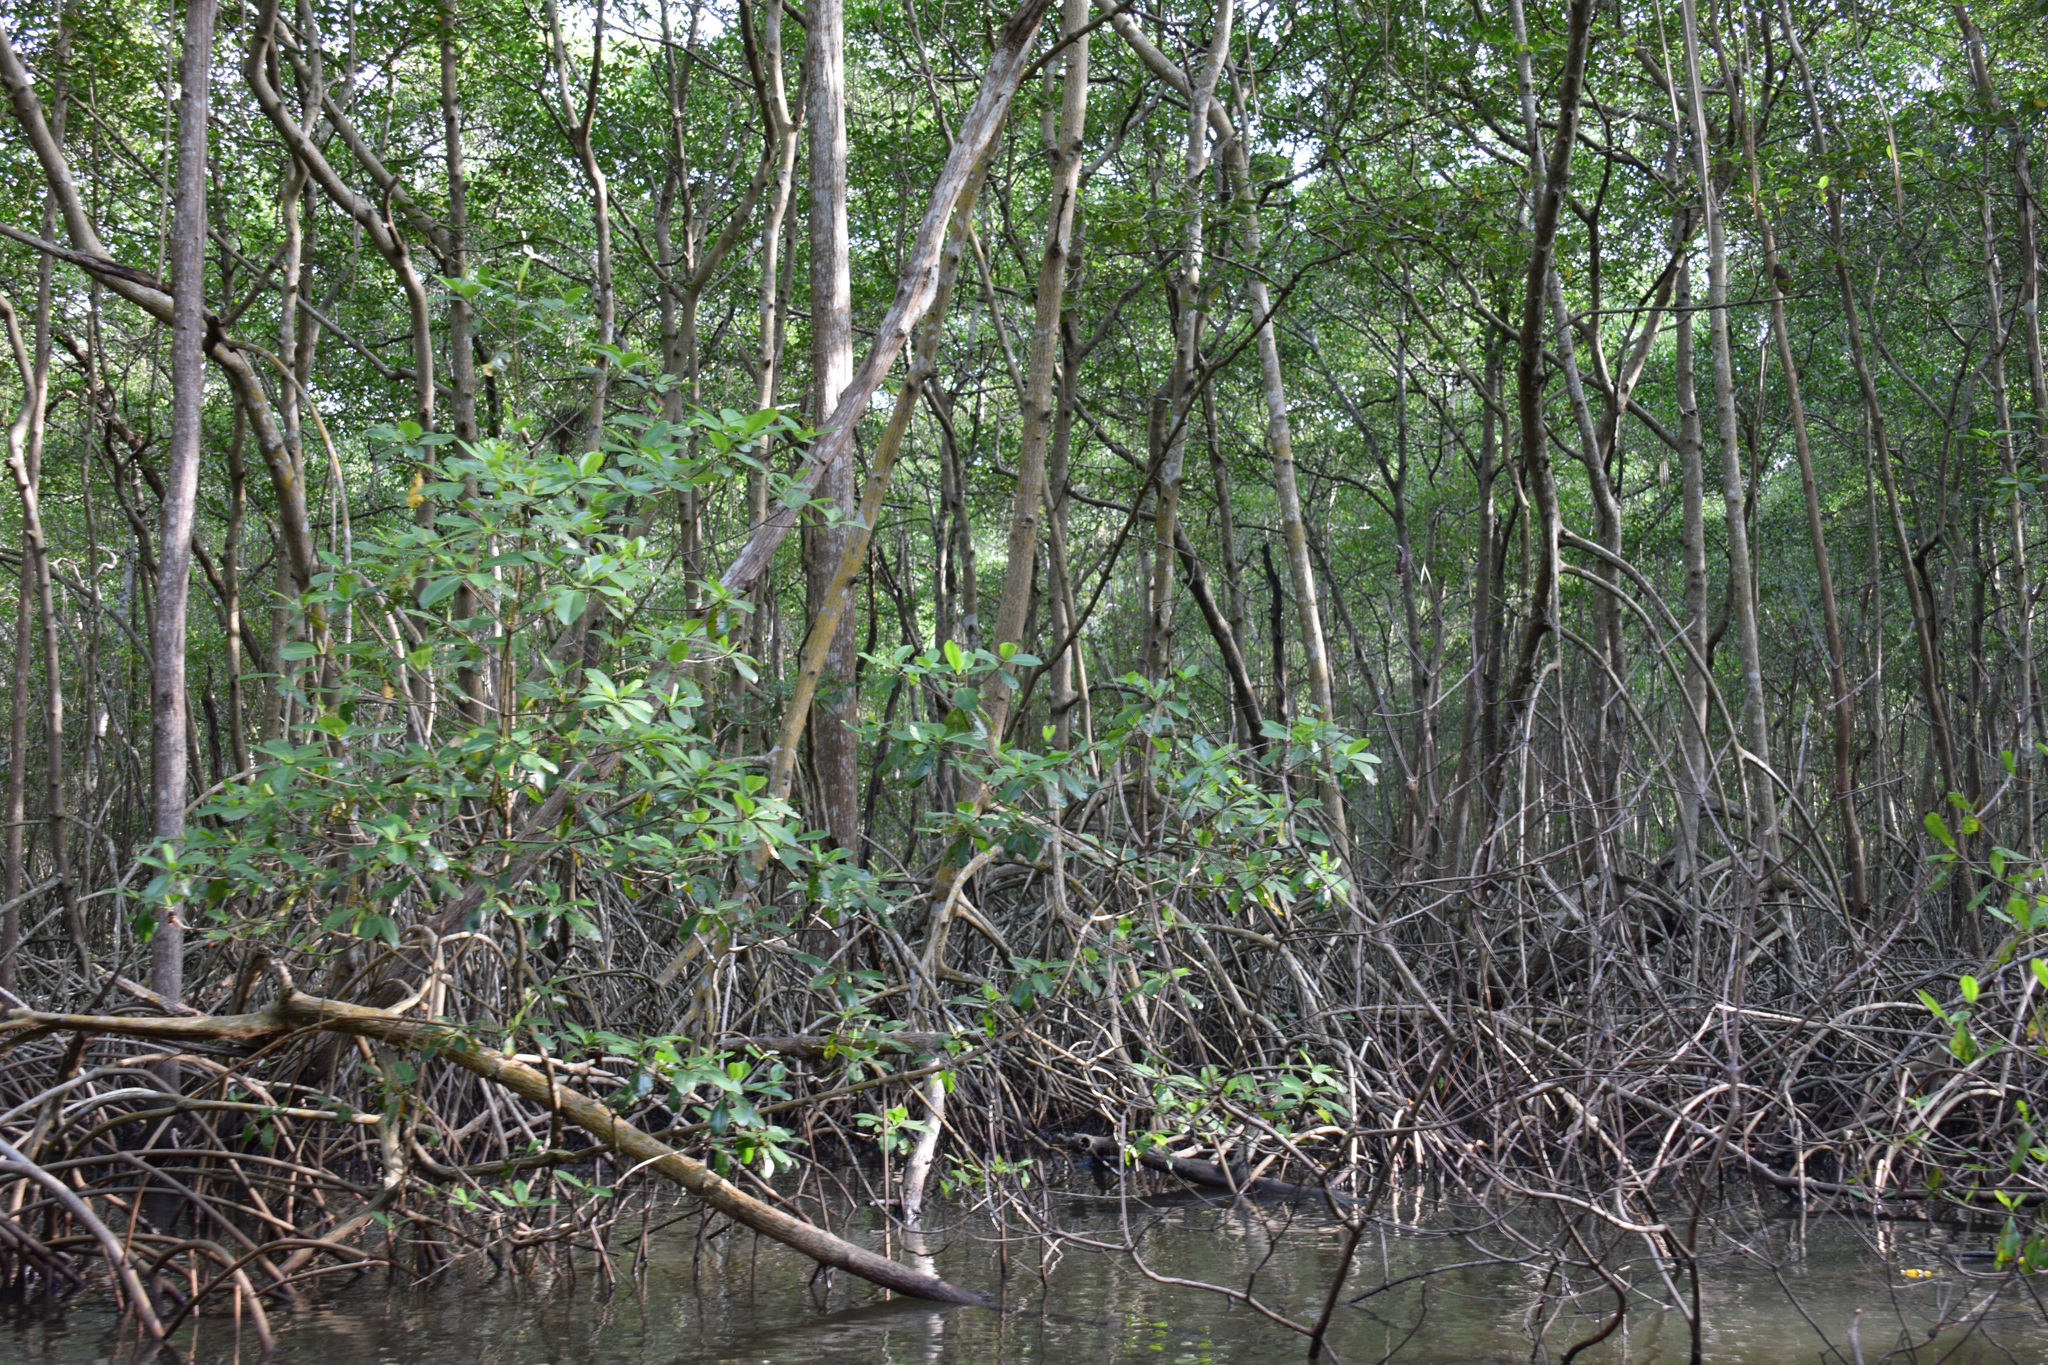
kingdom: Plantae
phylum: Tracheophyta
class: Magnoliopsida
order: Malpighiales
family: Rhizophoraceae
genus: Rhizophora
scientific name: Rhizophora mangle
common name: Red mangrove
